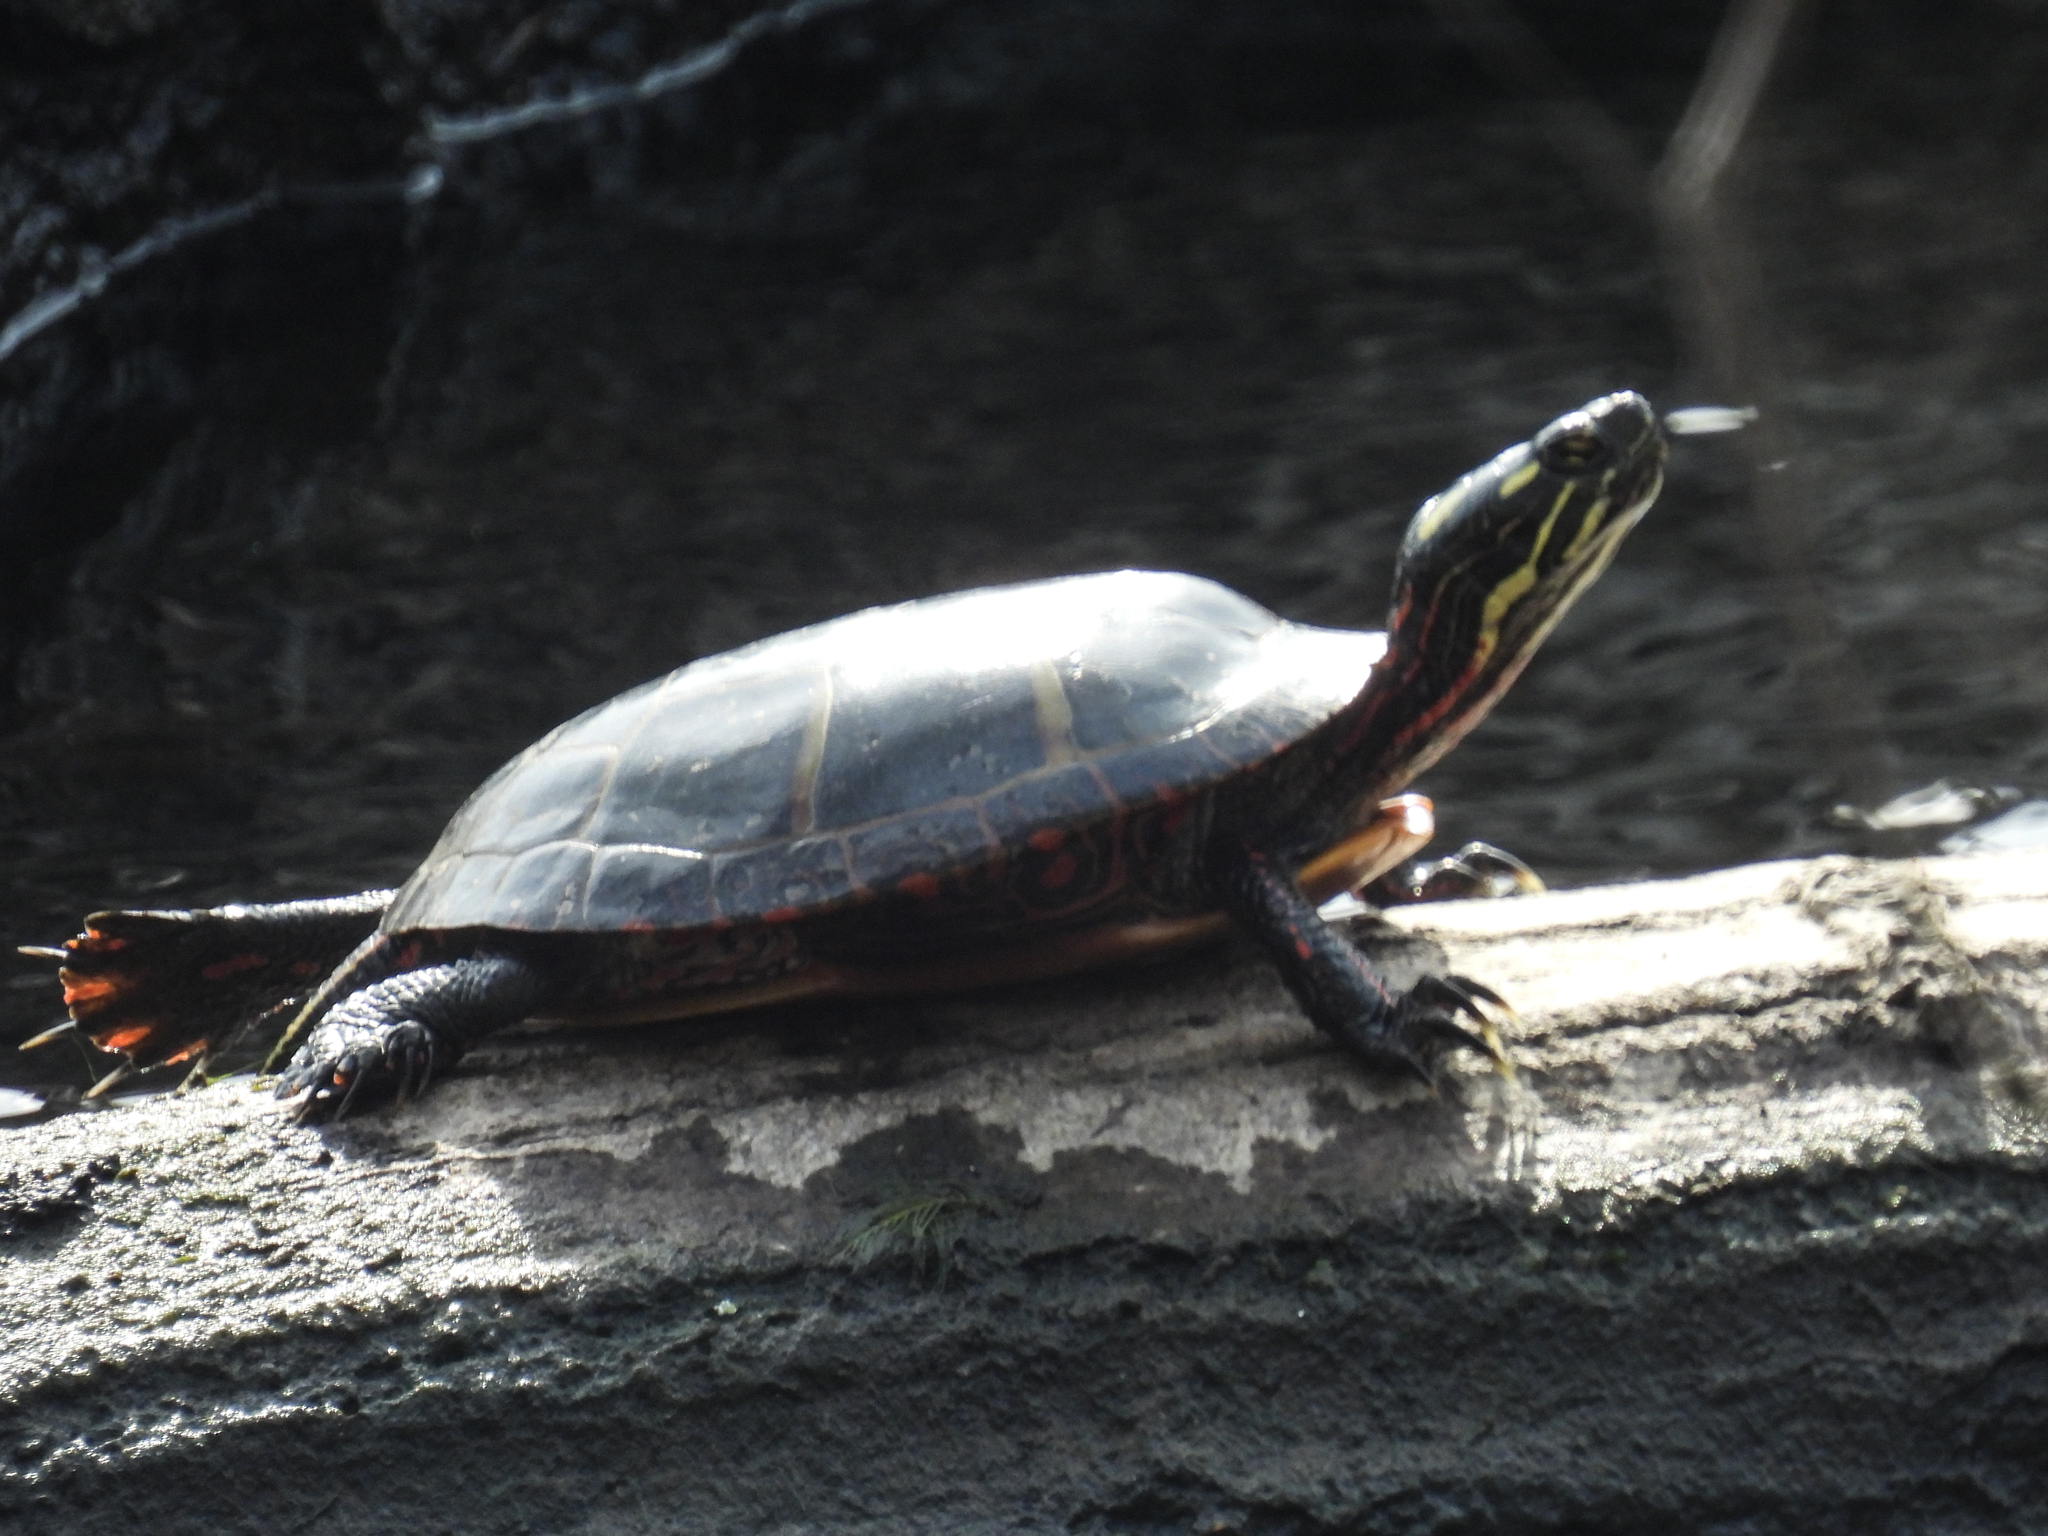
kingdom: Animalia
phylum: Chordata
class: Testudines
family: Emydidae
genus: Chrysemys
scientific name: Chrysemys picta
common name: Painted turtle
